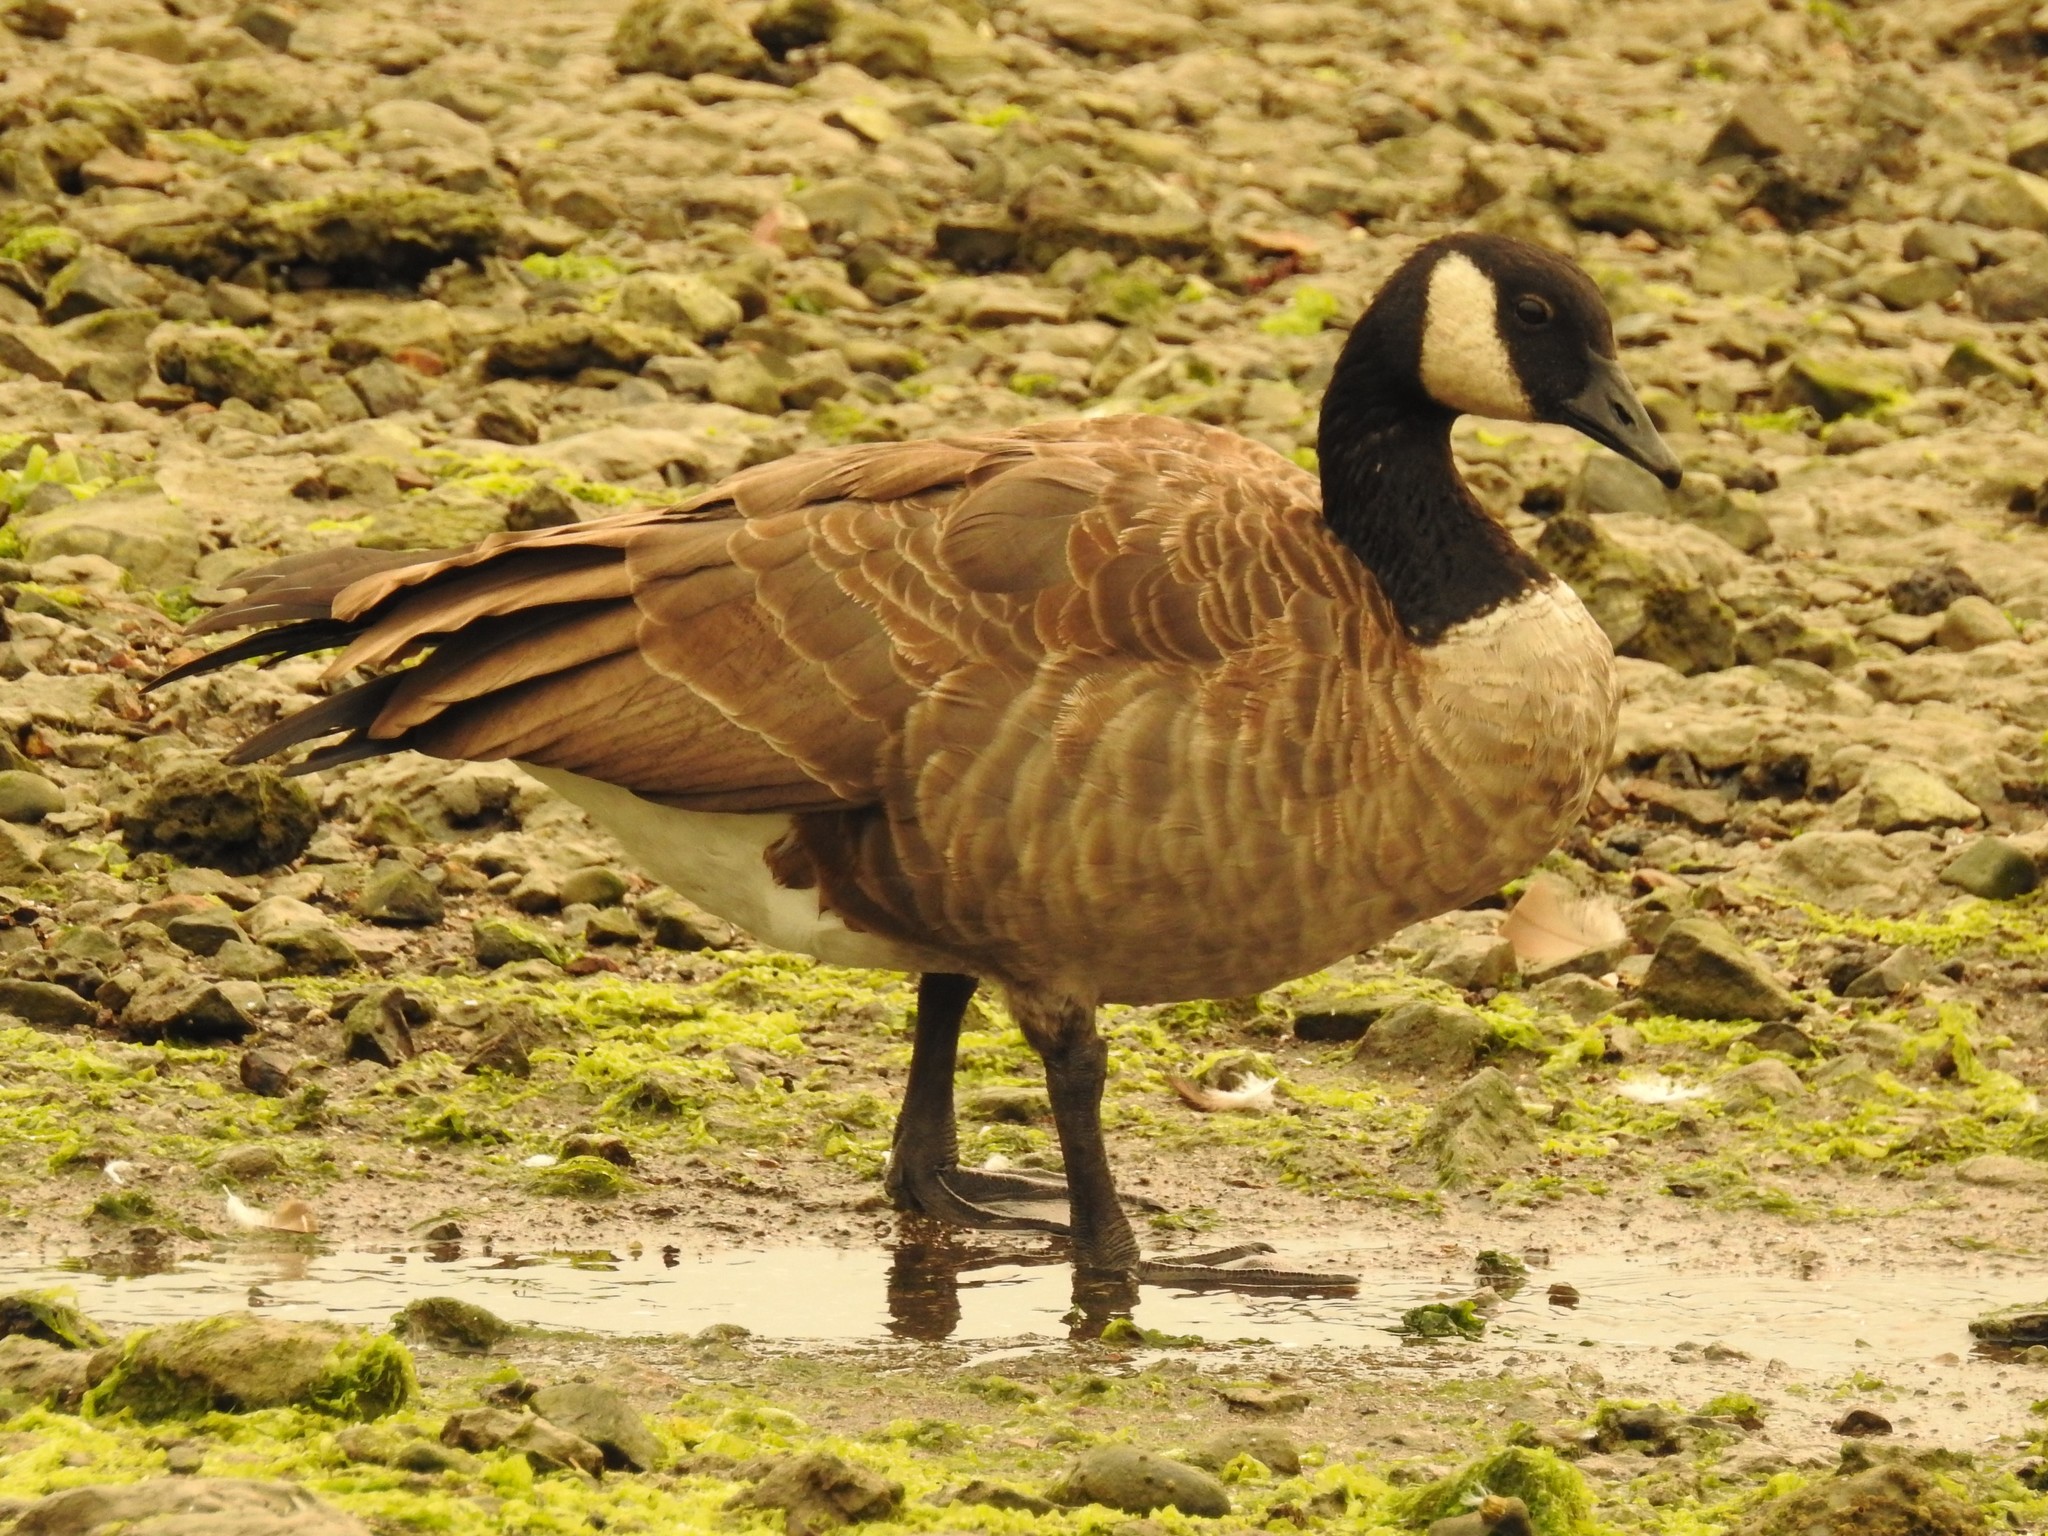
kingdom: Animalia
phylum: Chordata
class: Aves
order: Anseriformes
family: Anatidae
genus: Branta
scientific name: Branta canadensis
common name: Canada goose
